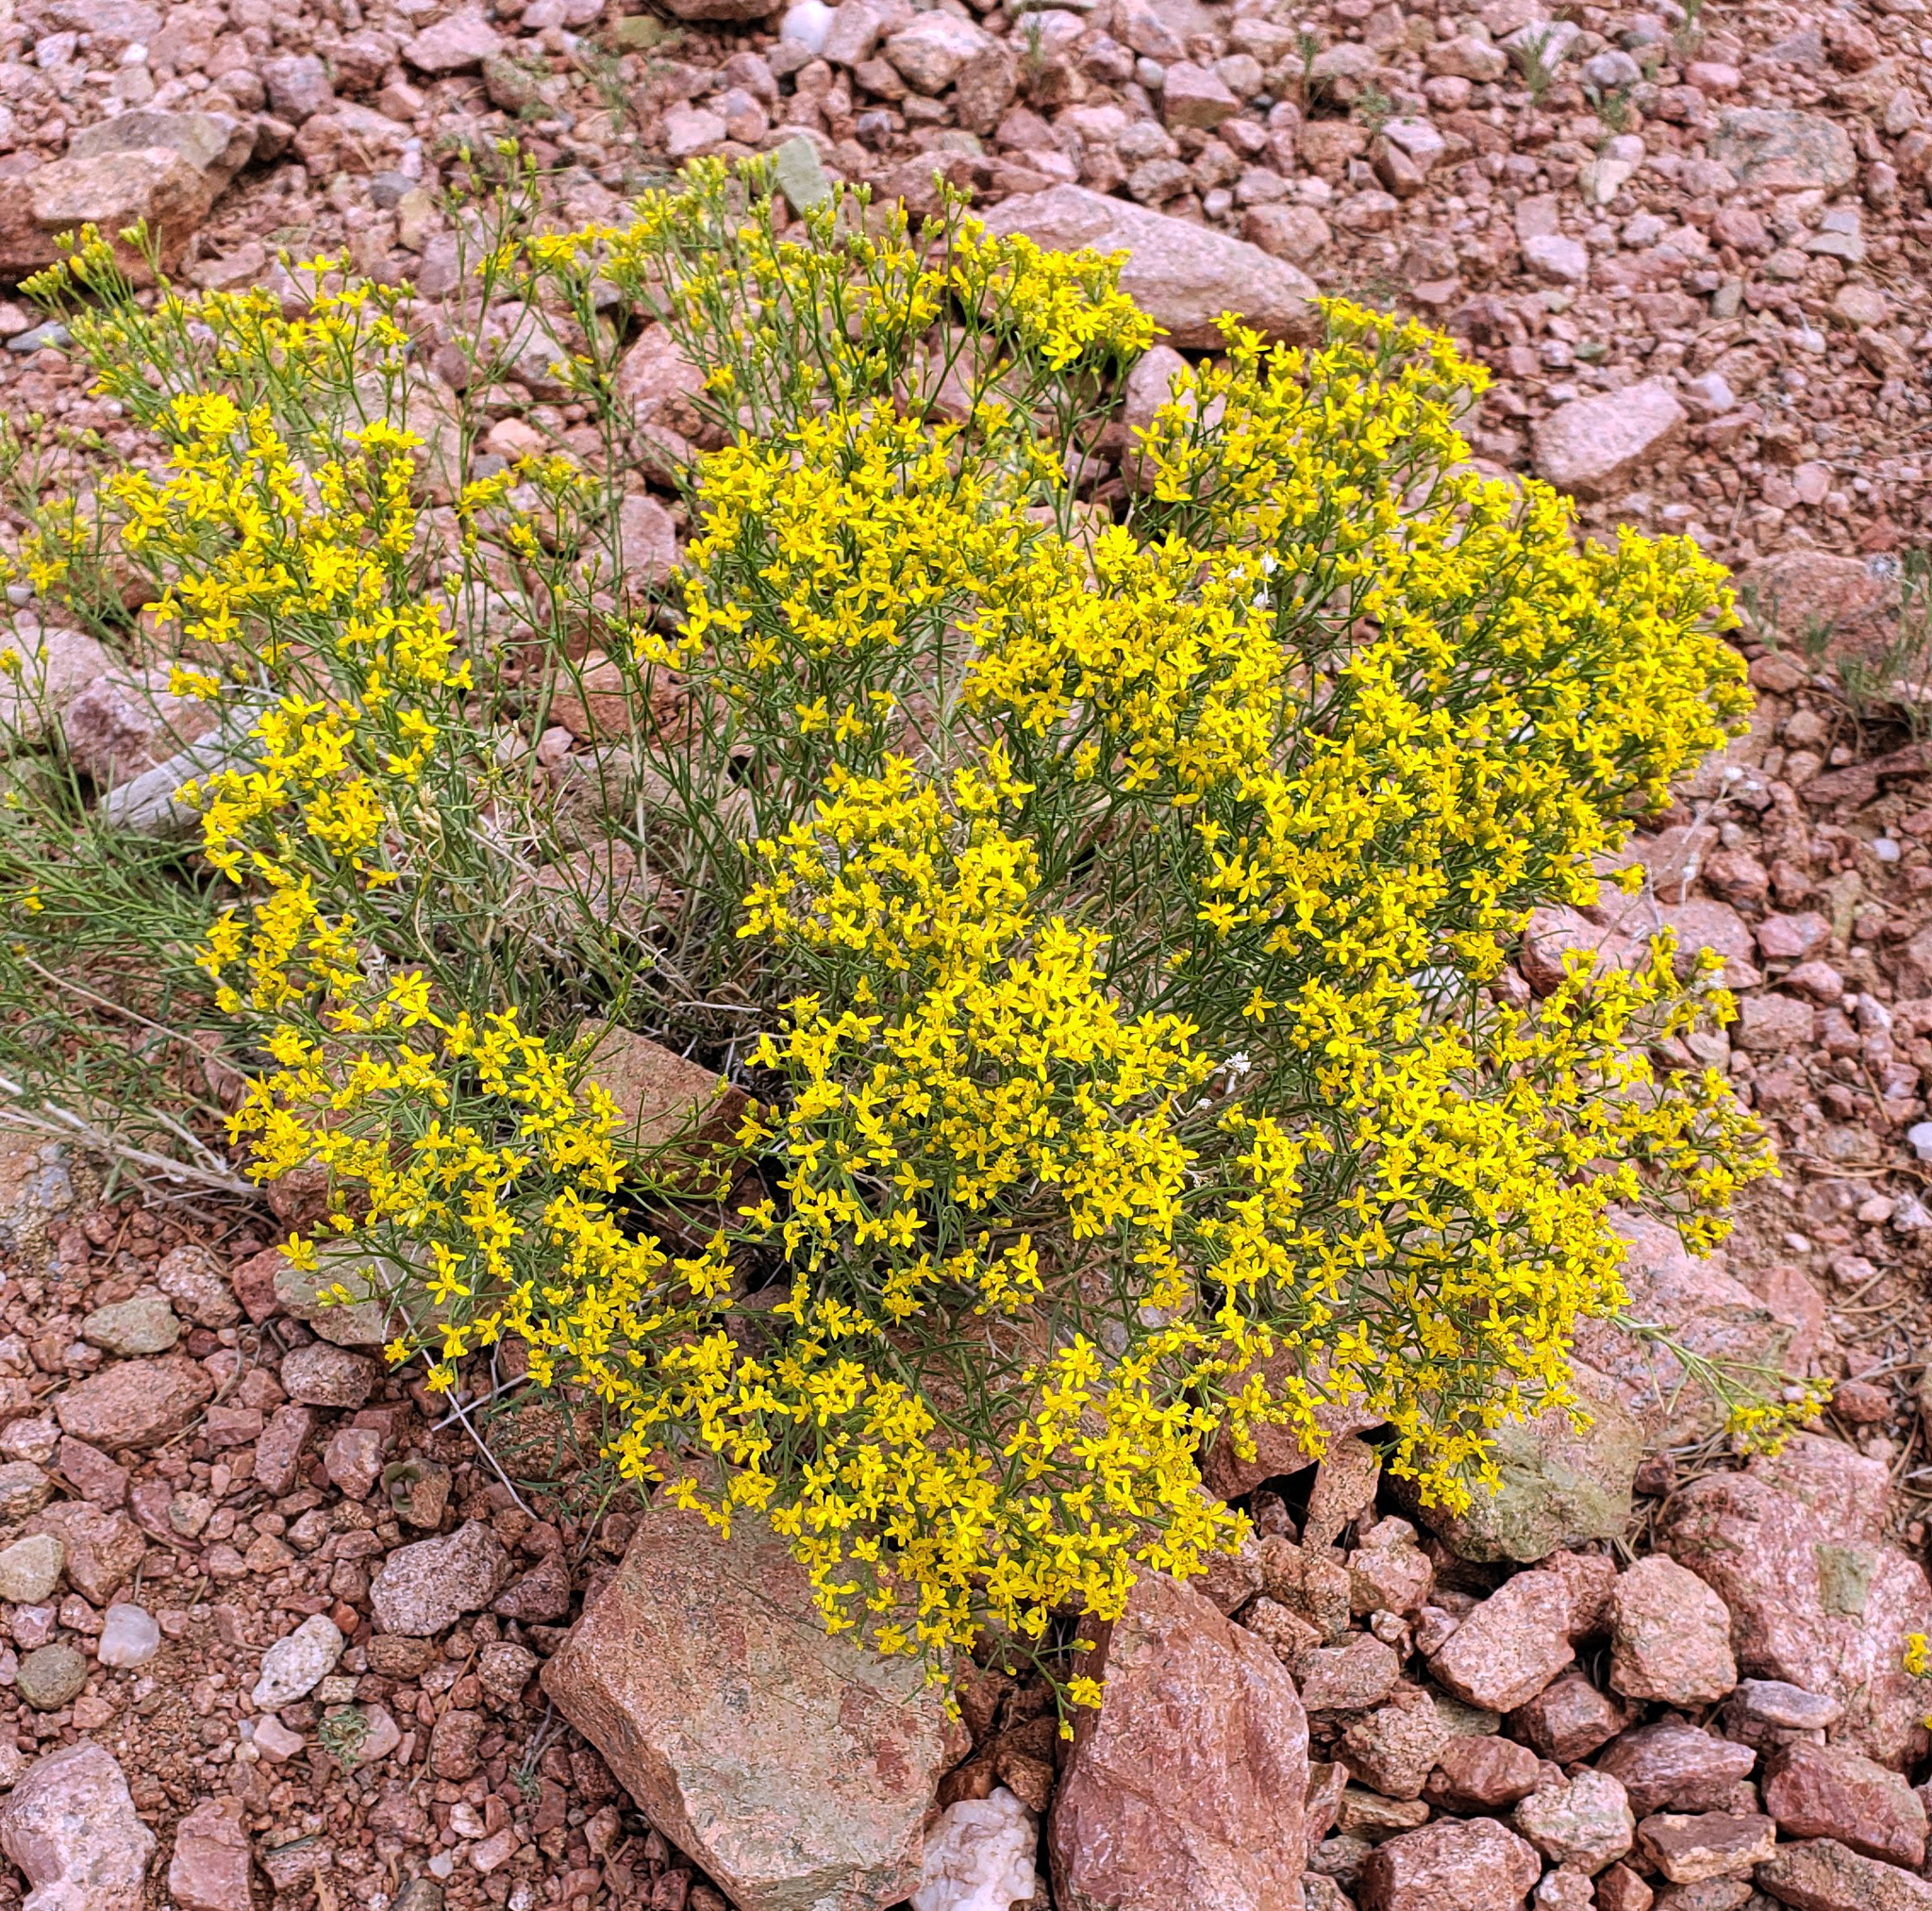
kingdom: Plantae
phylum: Tracheophyta
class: Magnoliopsida
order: Asterales
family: Asteraceae
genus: Gutierrezia
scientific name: Gutierrezia sarothrae
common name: Broom snakeweed
